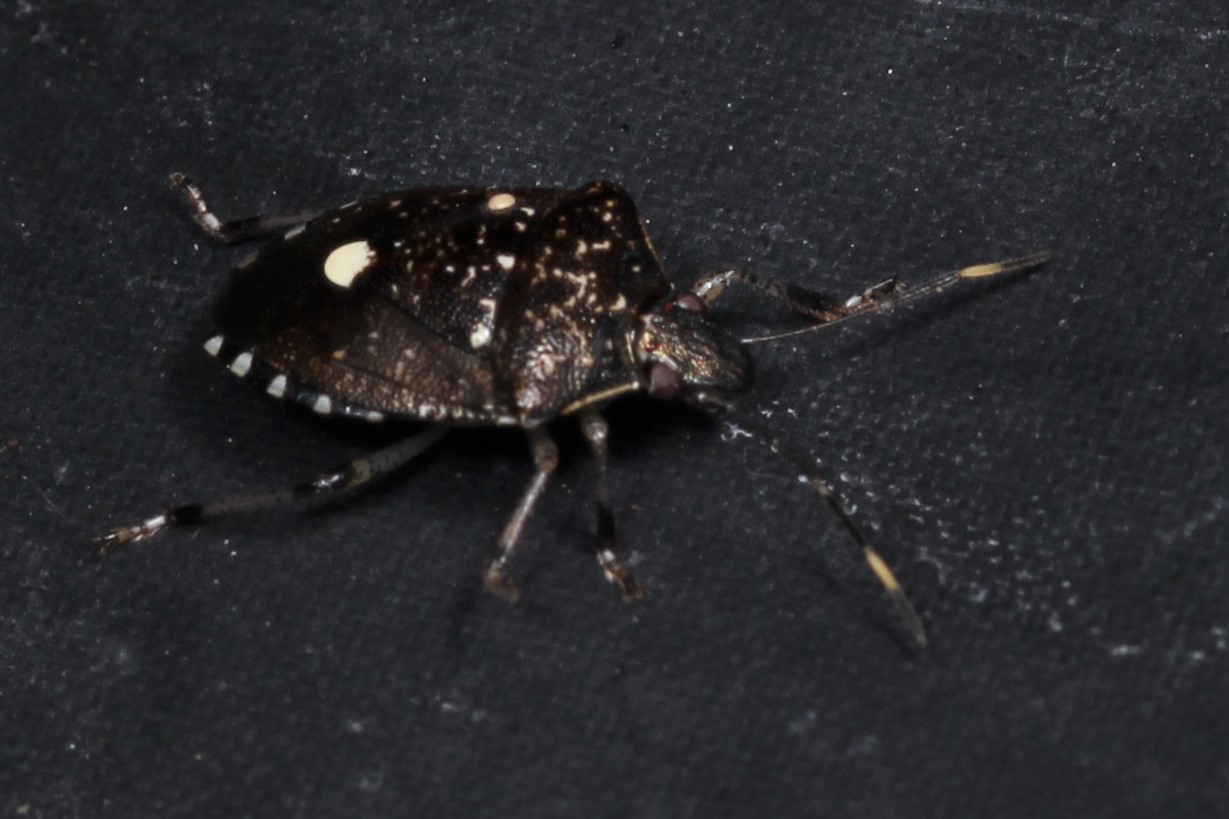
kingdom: Animalia
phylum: Arthropoda
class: Insecta
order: Hemiptera
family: Pentatomidae
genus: Tolumnia
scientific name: Tolumnia latipes
